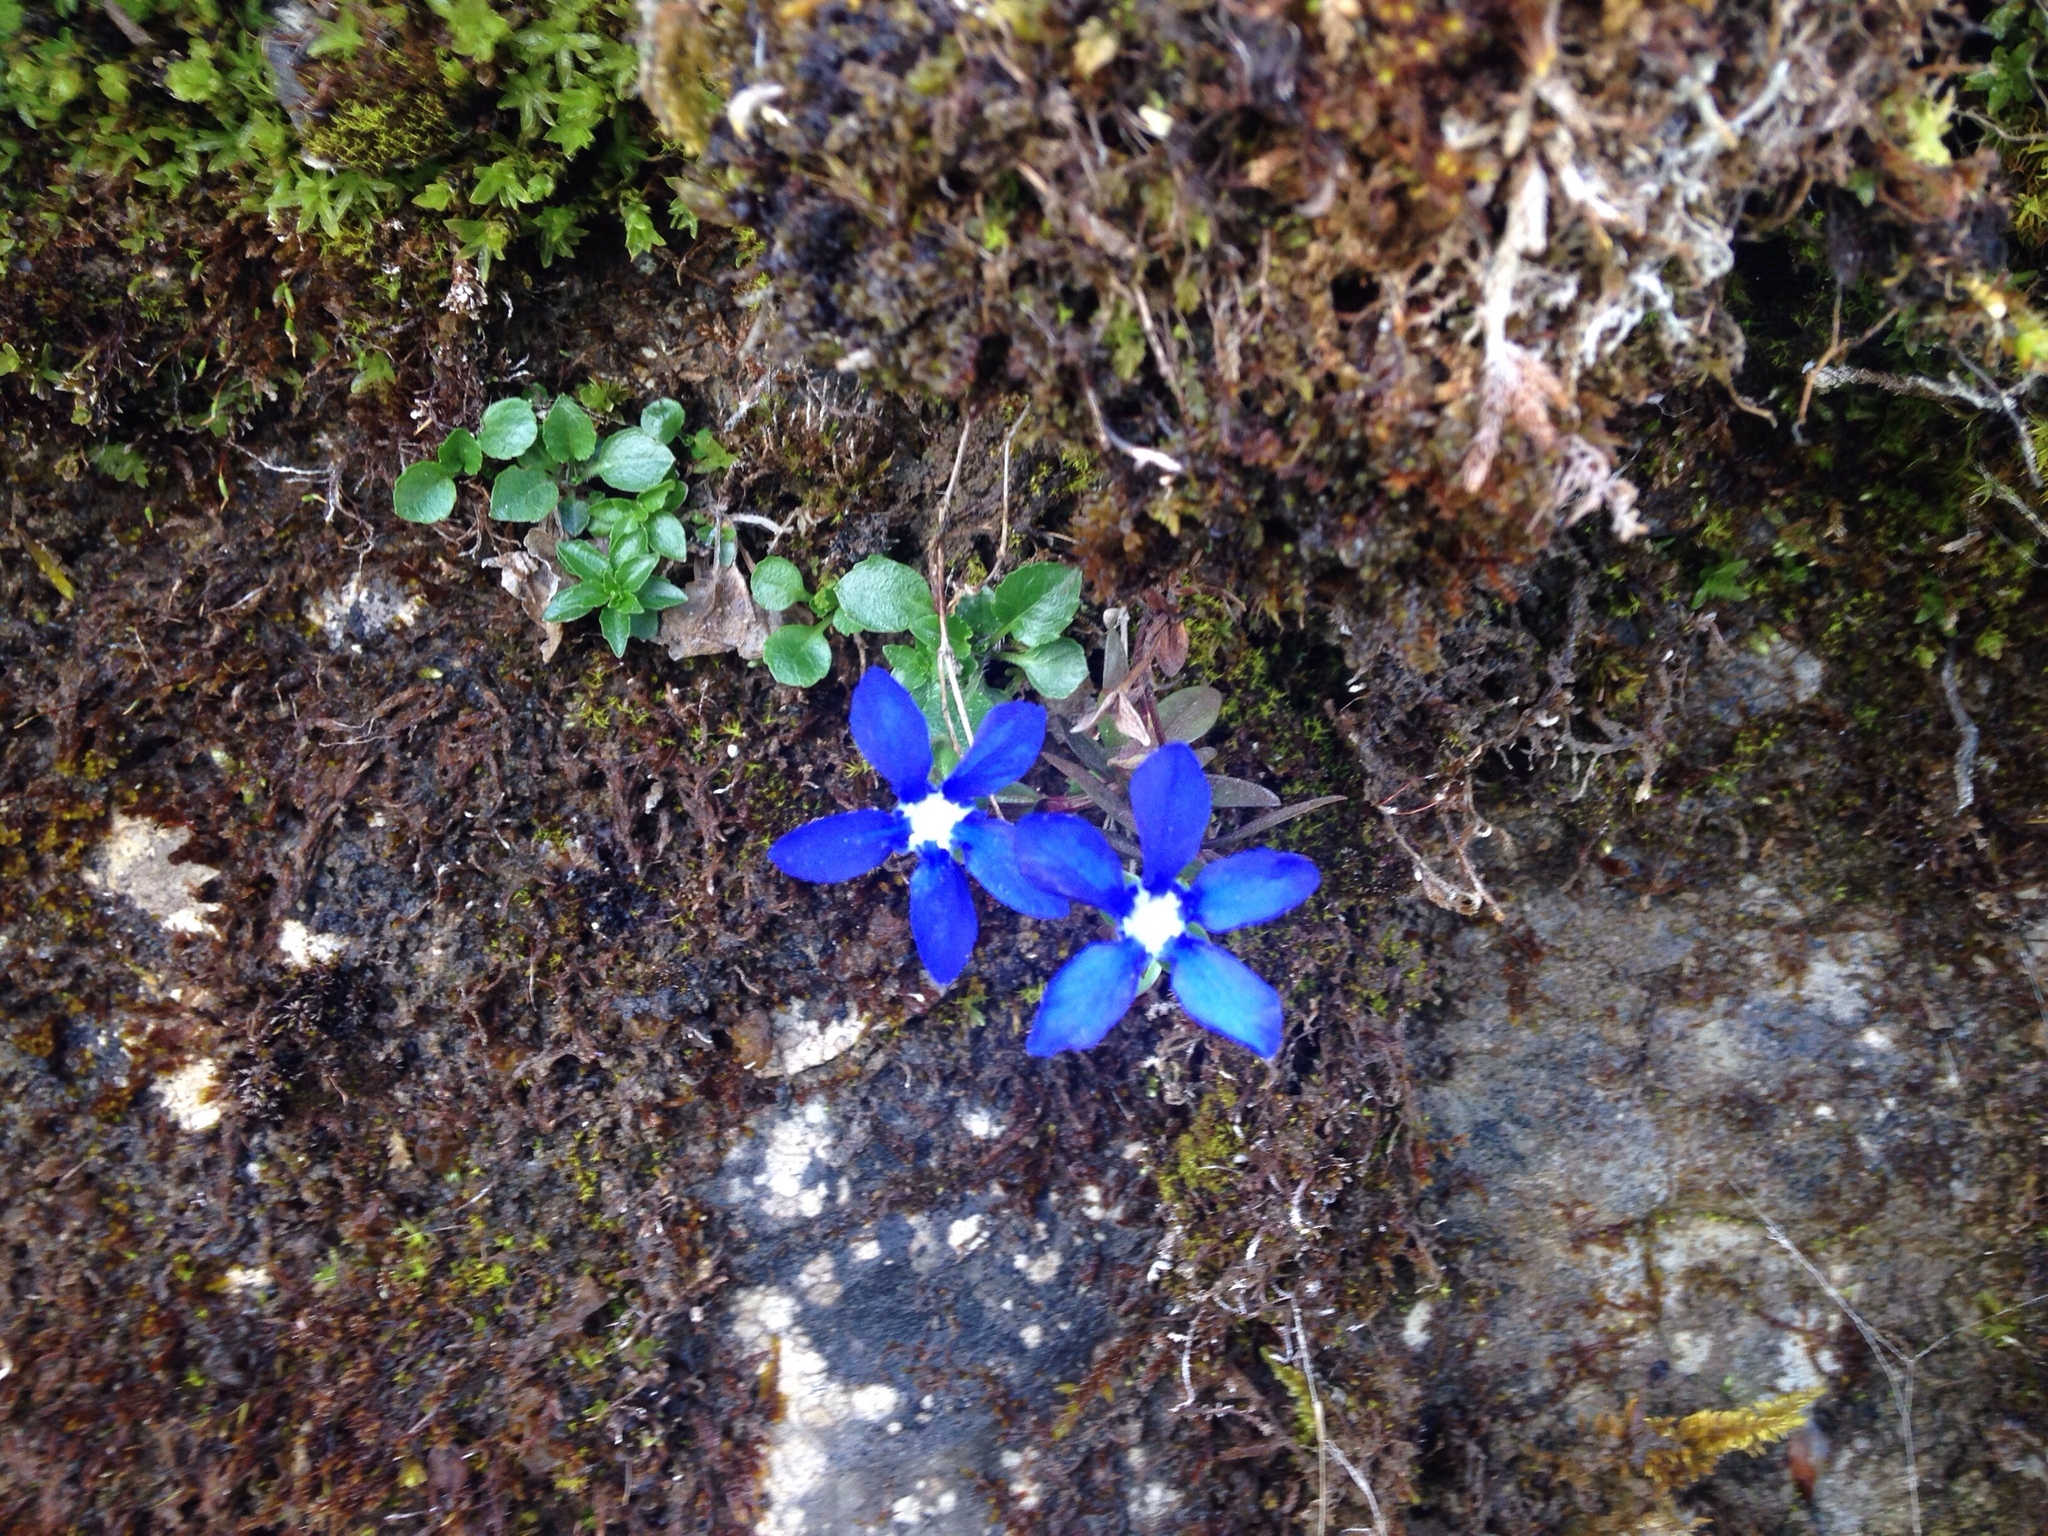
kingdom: Plantae
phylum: Tracheophyta
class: Magnoliopsida
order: Gentianales
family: Gentianaceae
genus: Gentiana
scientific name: Gentiana
